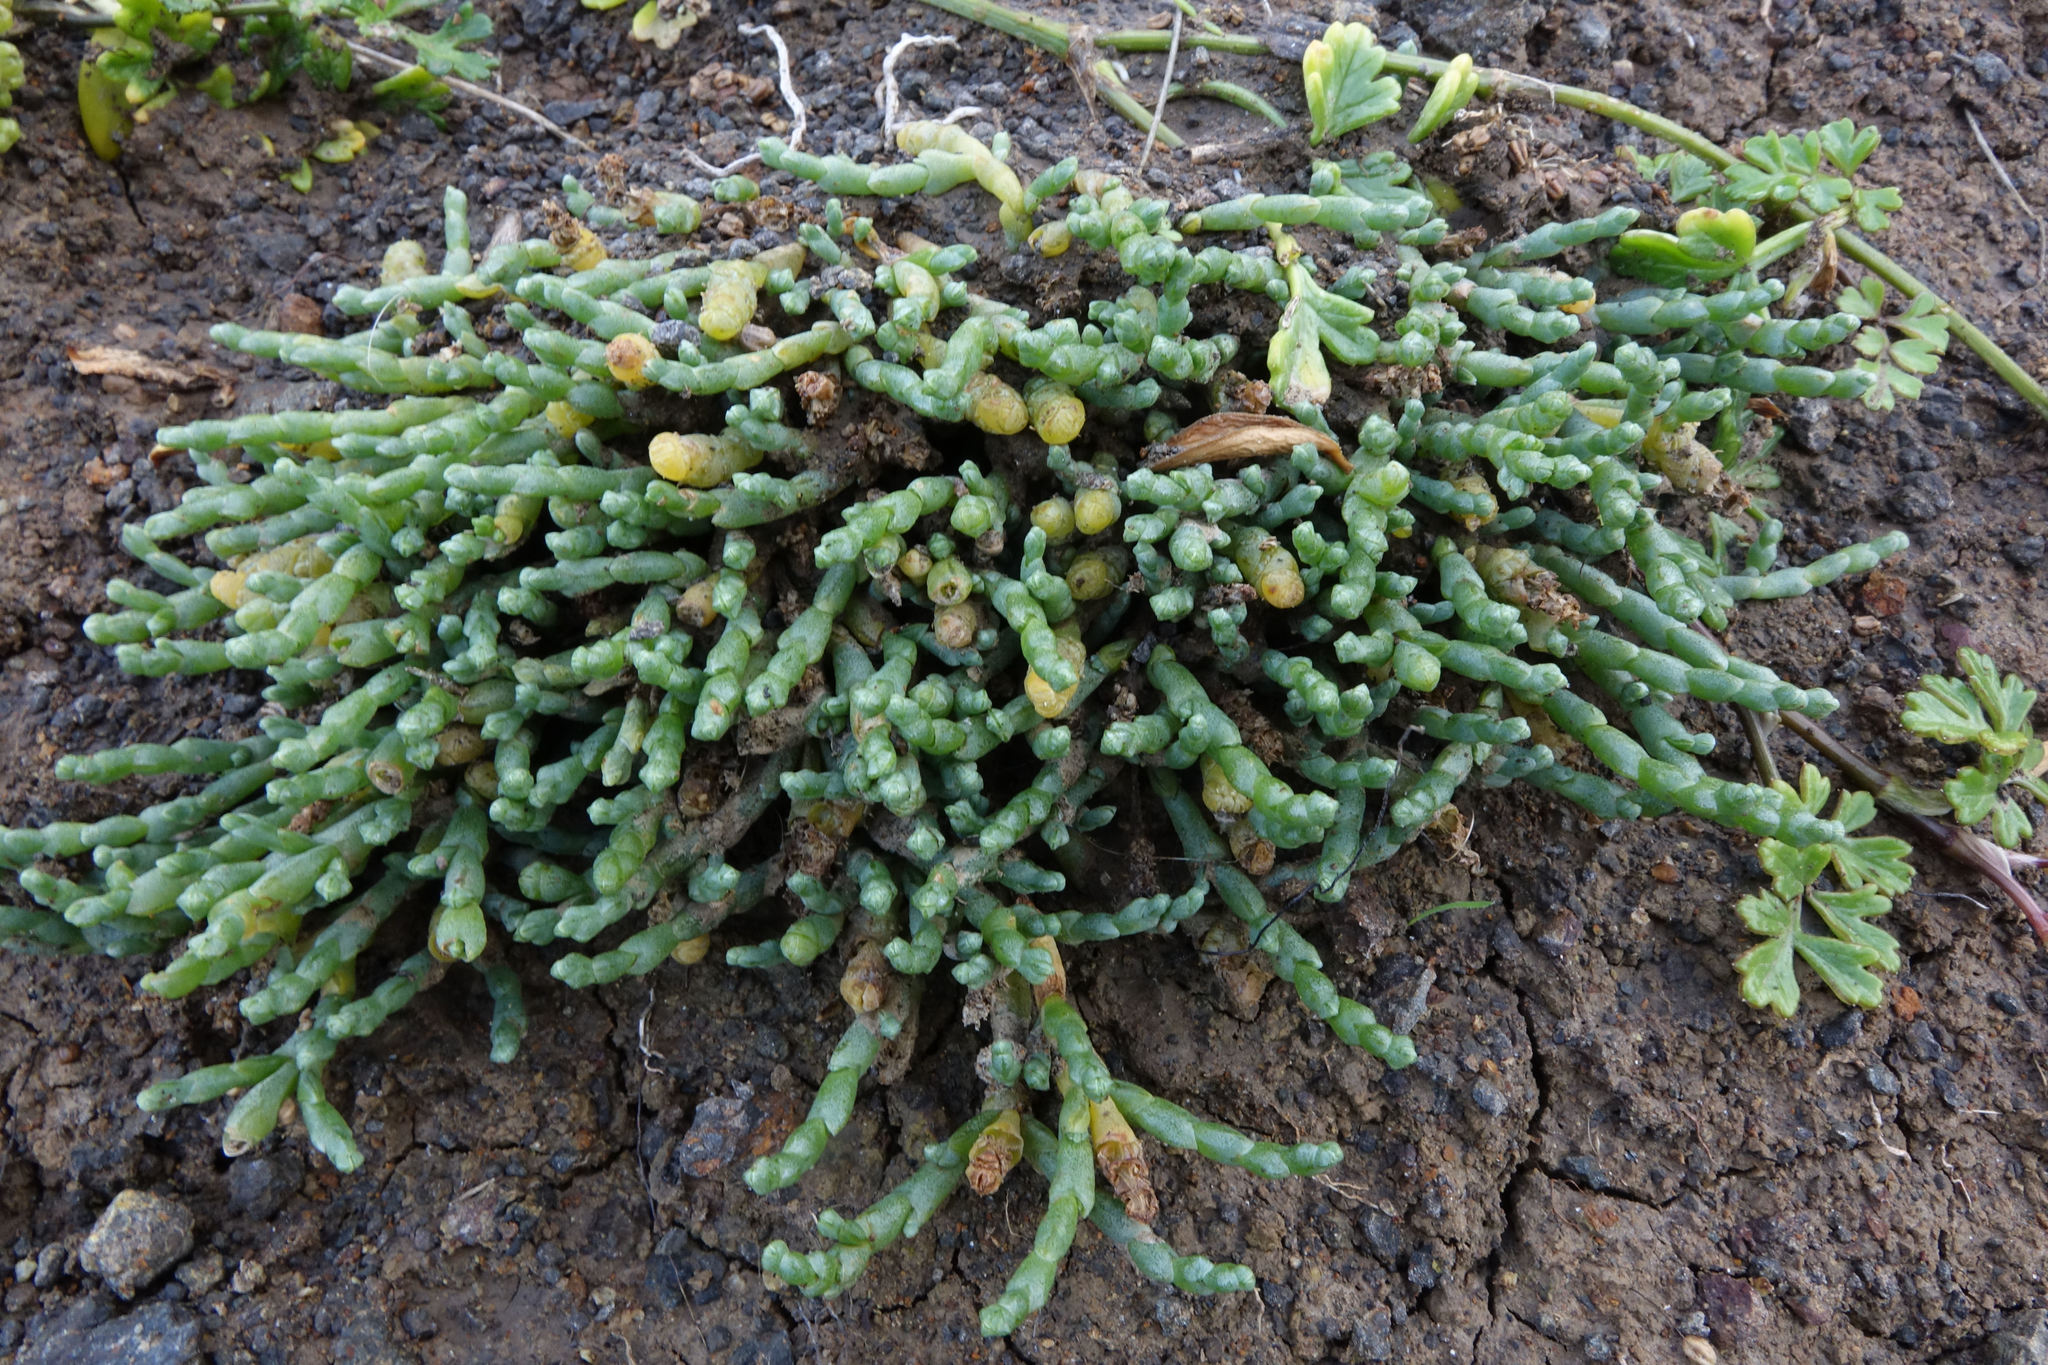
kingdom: Plantae
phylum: Tracheophyta
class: Magnoliopsida
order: Caryophyllales
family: Amaranthaceae
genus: Salicornia
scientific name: Salicornia quinqueflora
